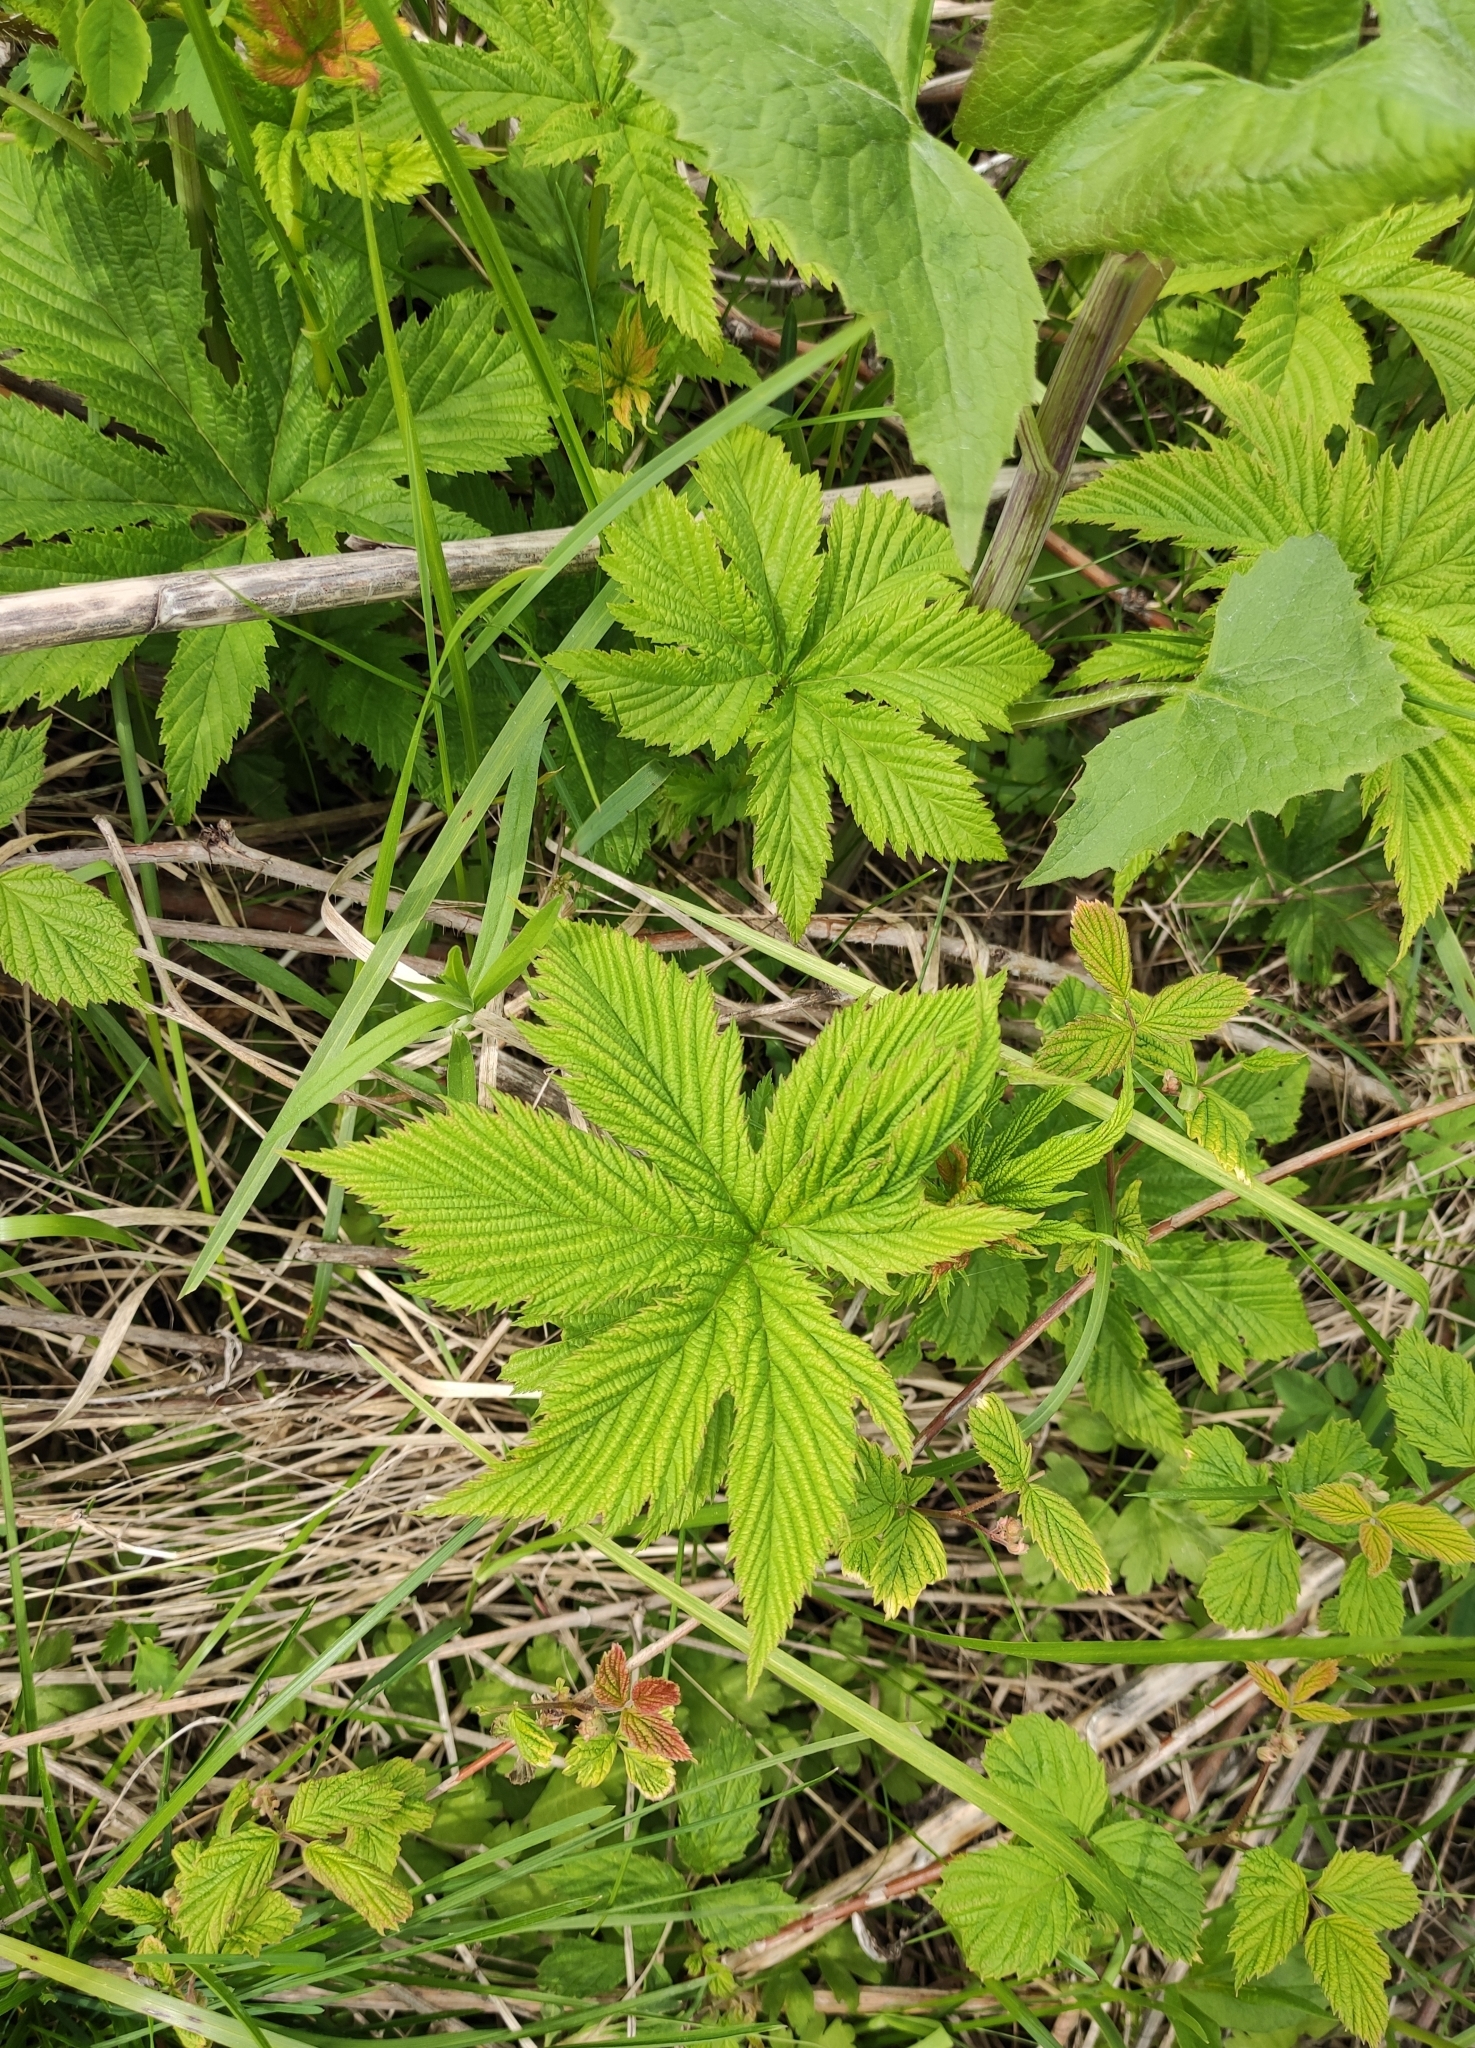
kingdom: Plantae
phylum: Tracheophyta
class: Magnoliopsida
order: Rosales
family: Rosaceae
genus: Filipendula
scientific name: Filipendula digitata
